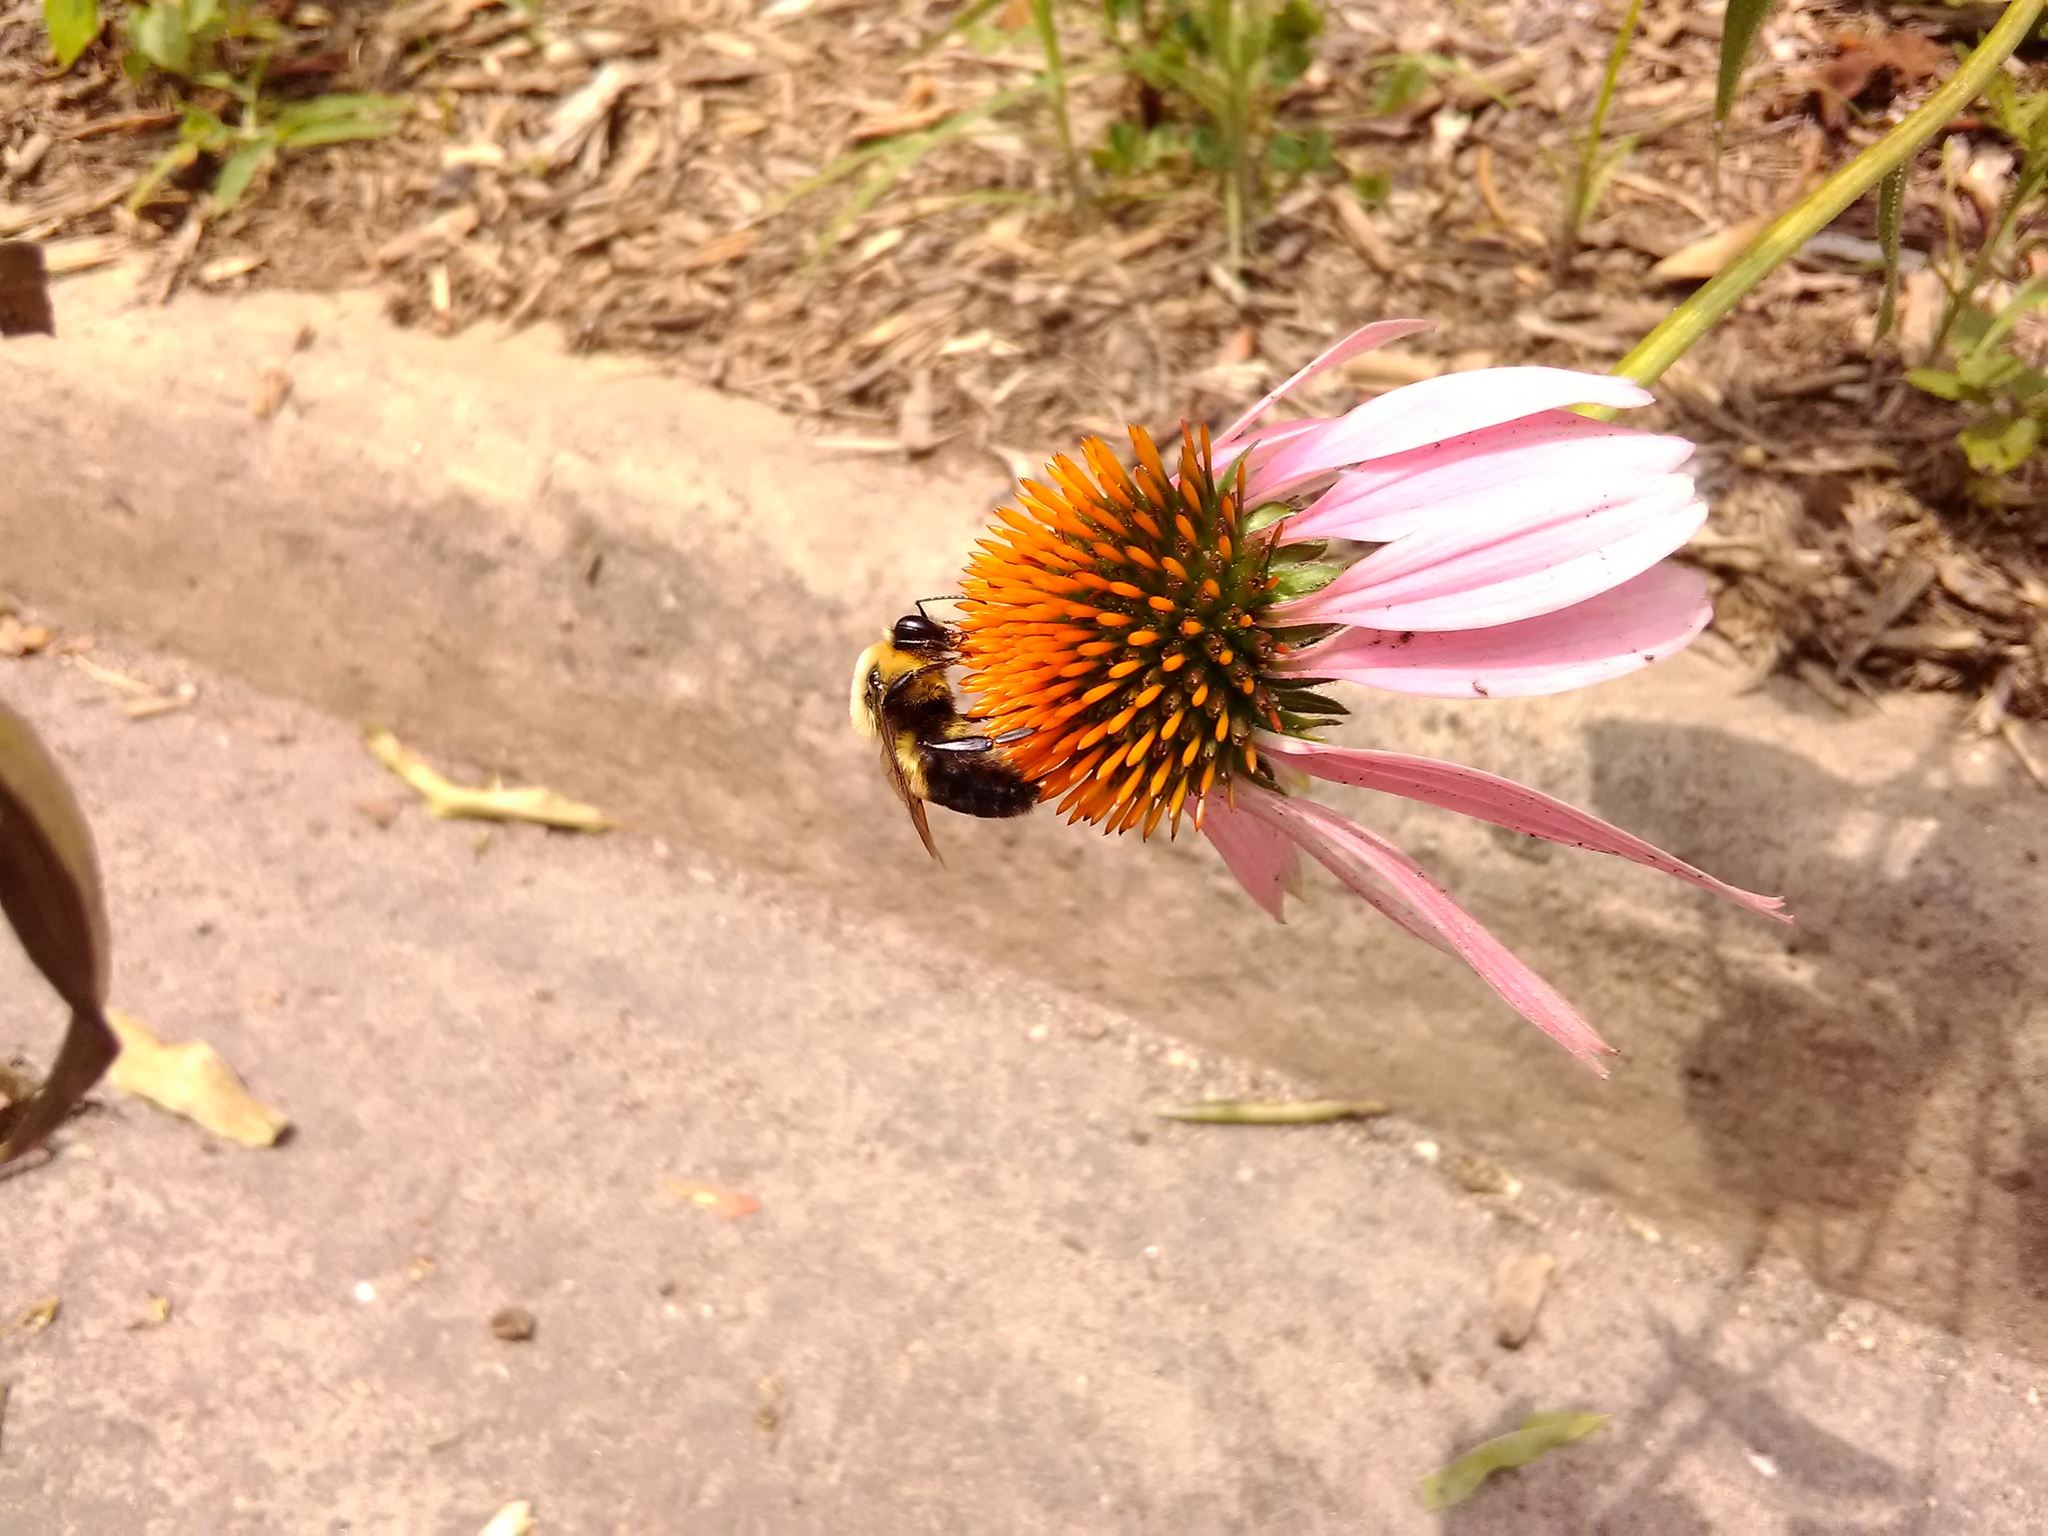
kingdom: Animalia
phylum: Arthropoda
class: Insecta
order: Hymenoptera
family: Apidae
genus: Bombus
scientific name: Bombus griseocollis
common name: Brown-belted bumble bee
